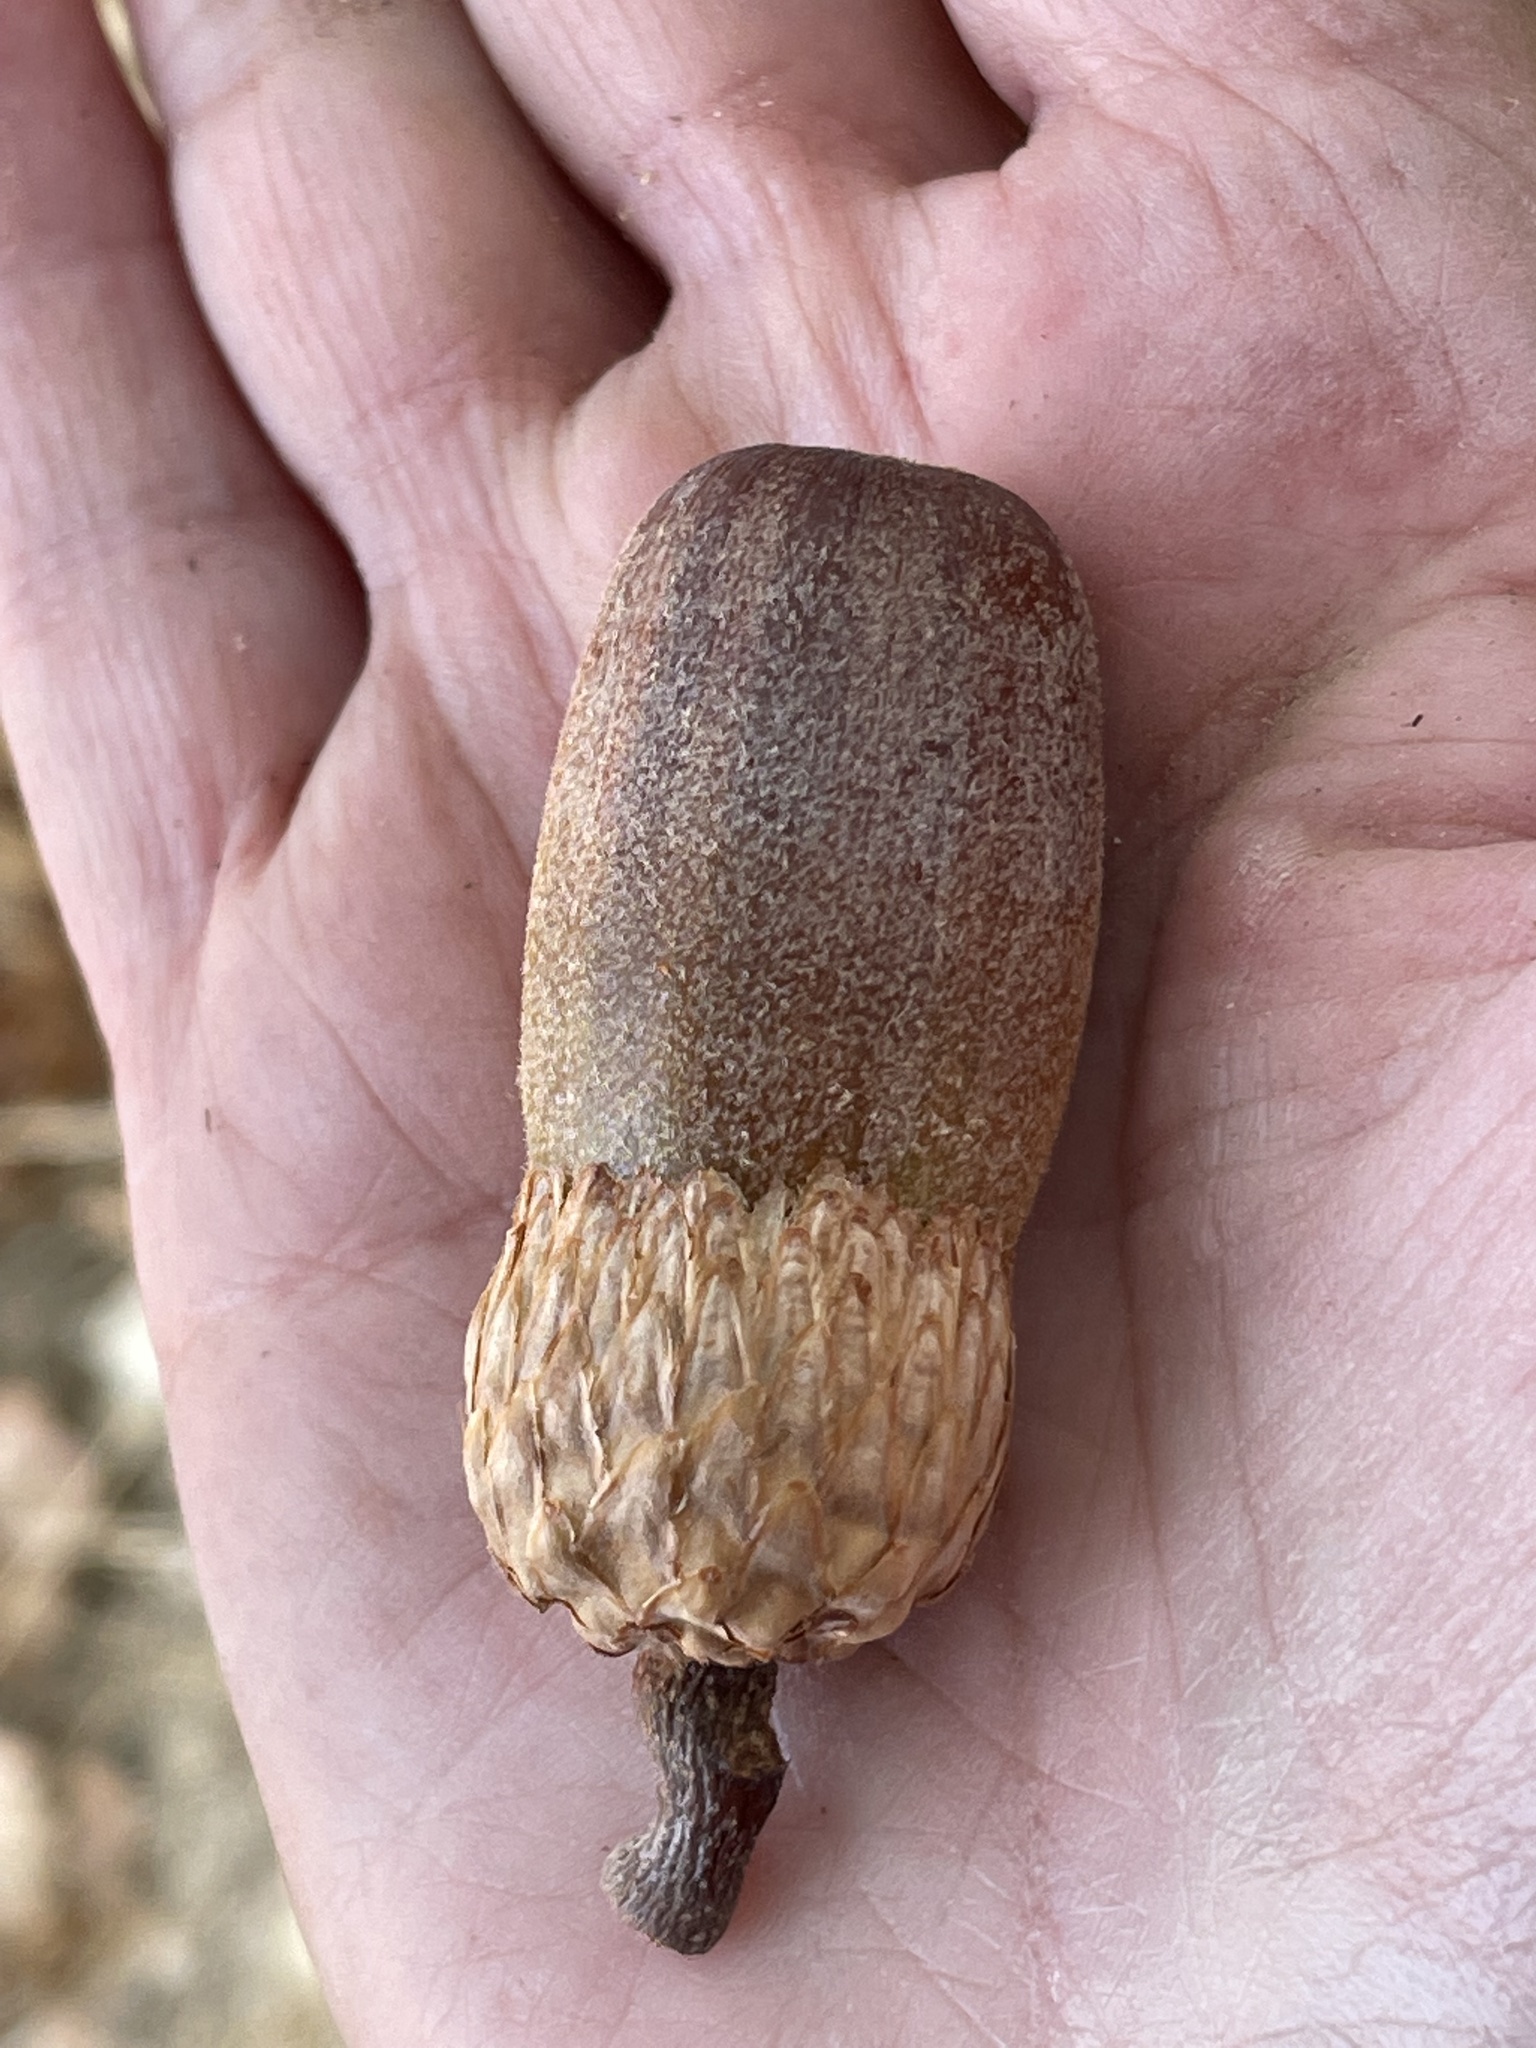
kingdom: Plantae
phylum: Tracheophyta
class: Magnoliopsida
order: Fagales
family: Fagaceae
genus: Quercus
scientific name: Quercus kelloggii
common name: California black oak
